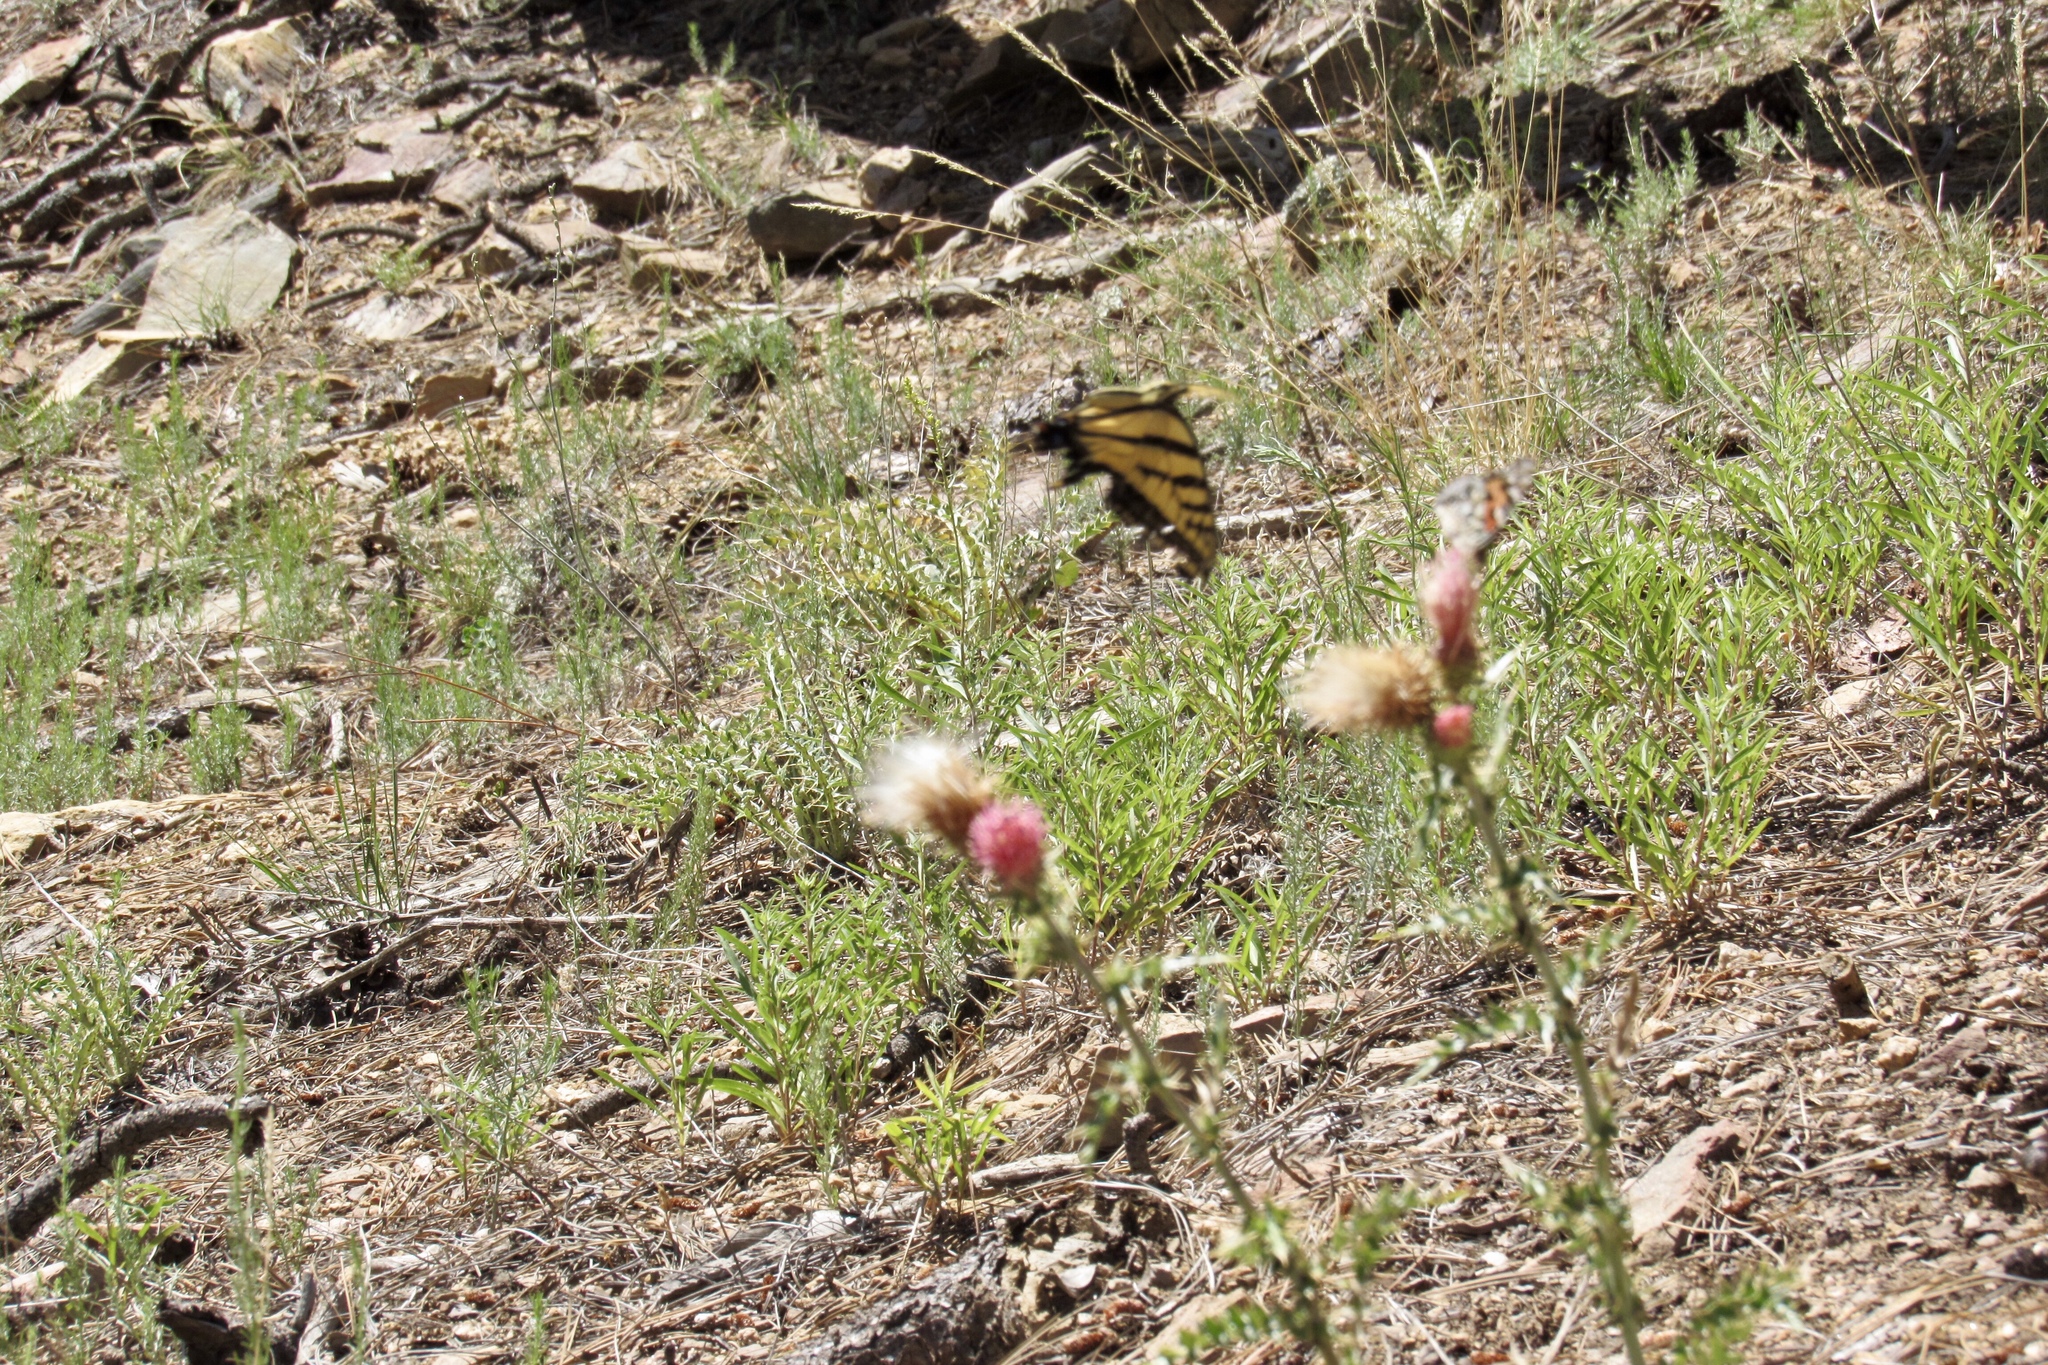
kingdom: Animalia
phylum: Arthropoda
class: Insecta
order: Lepidoptera
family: Papilionidae
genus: Papilio
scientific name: Papilio multicaudata
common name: Two-tailed tiger swallowtail
